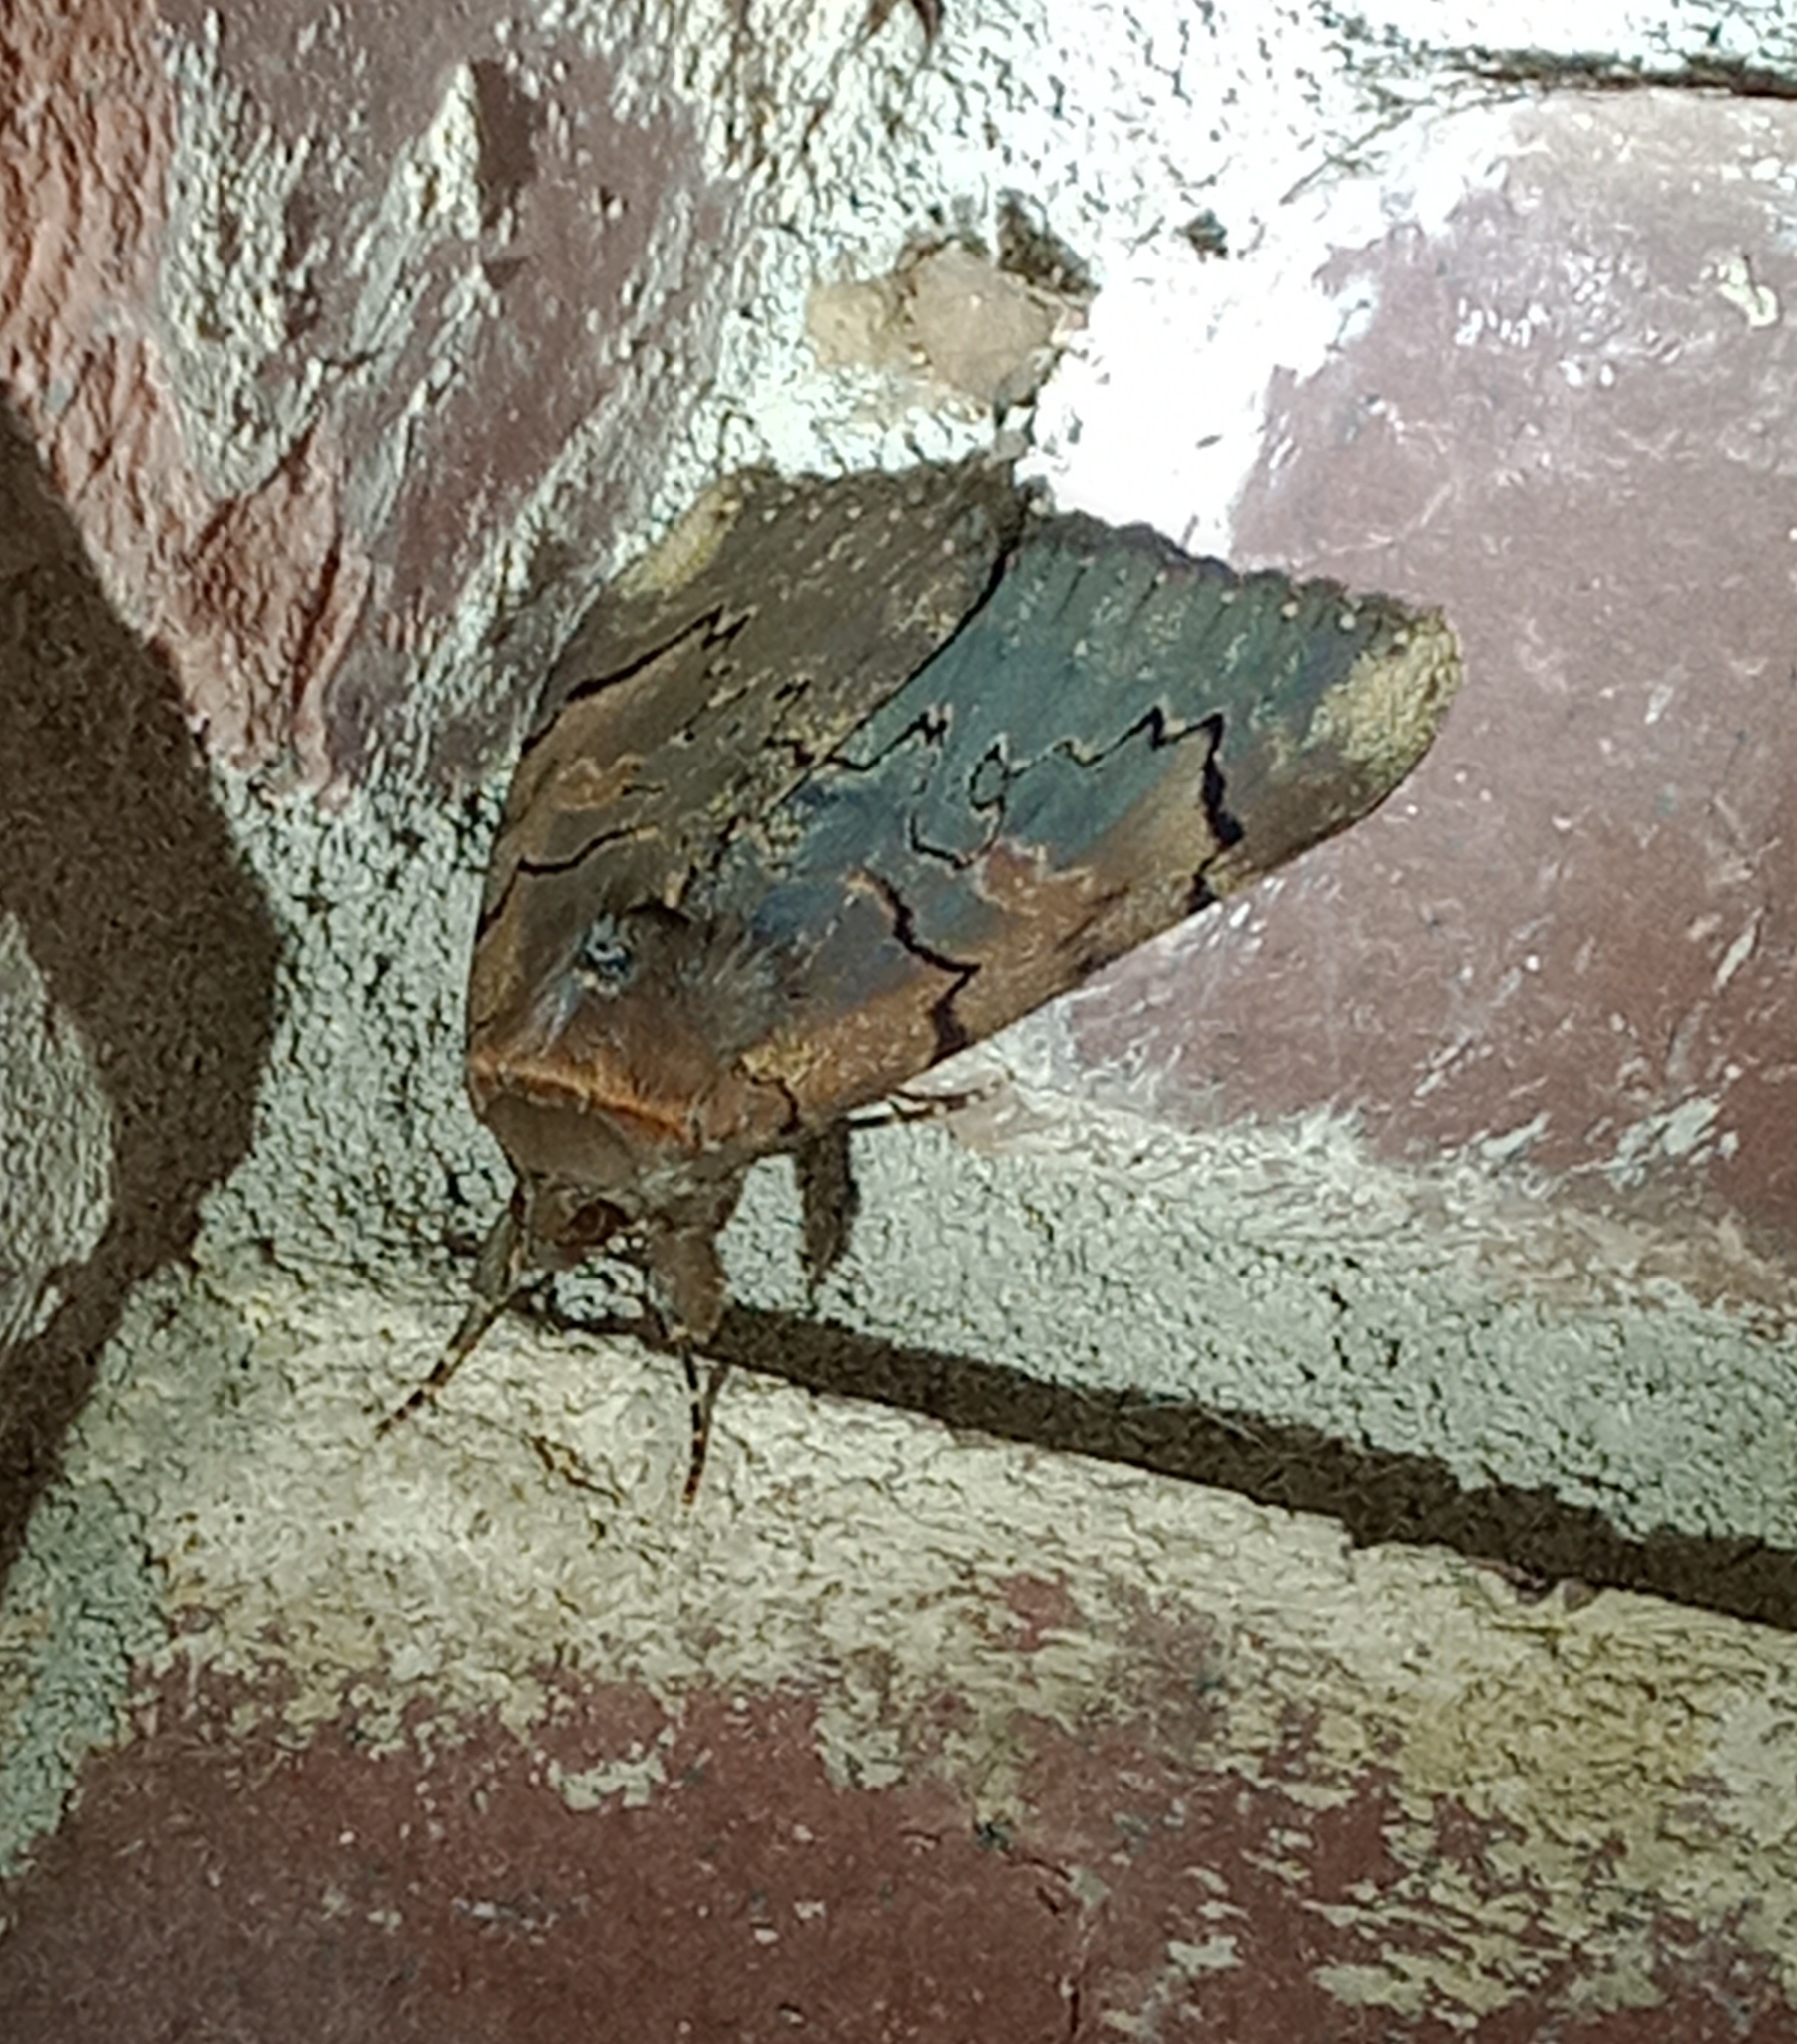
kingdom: Animalia
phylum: Arthropoda
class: Insecta
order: Lepidoptera
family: Erebidae
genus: Catocala
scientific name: Catocala carissima
